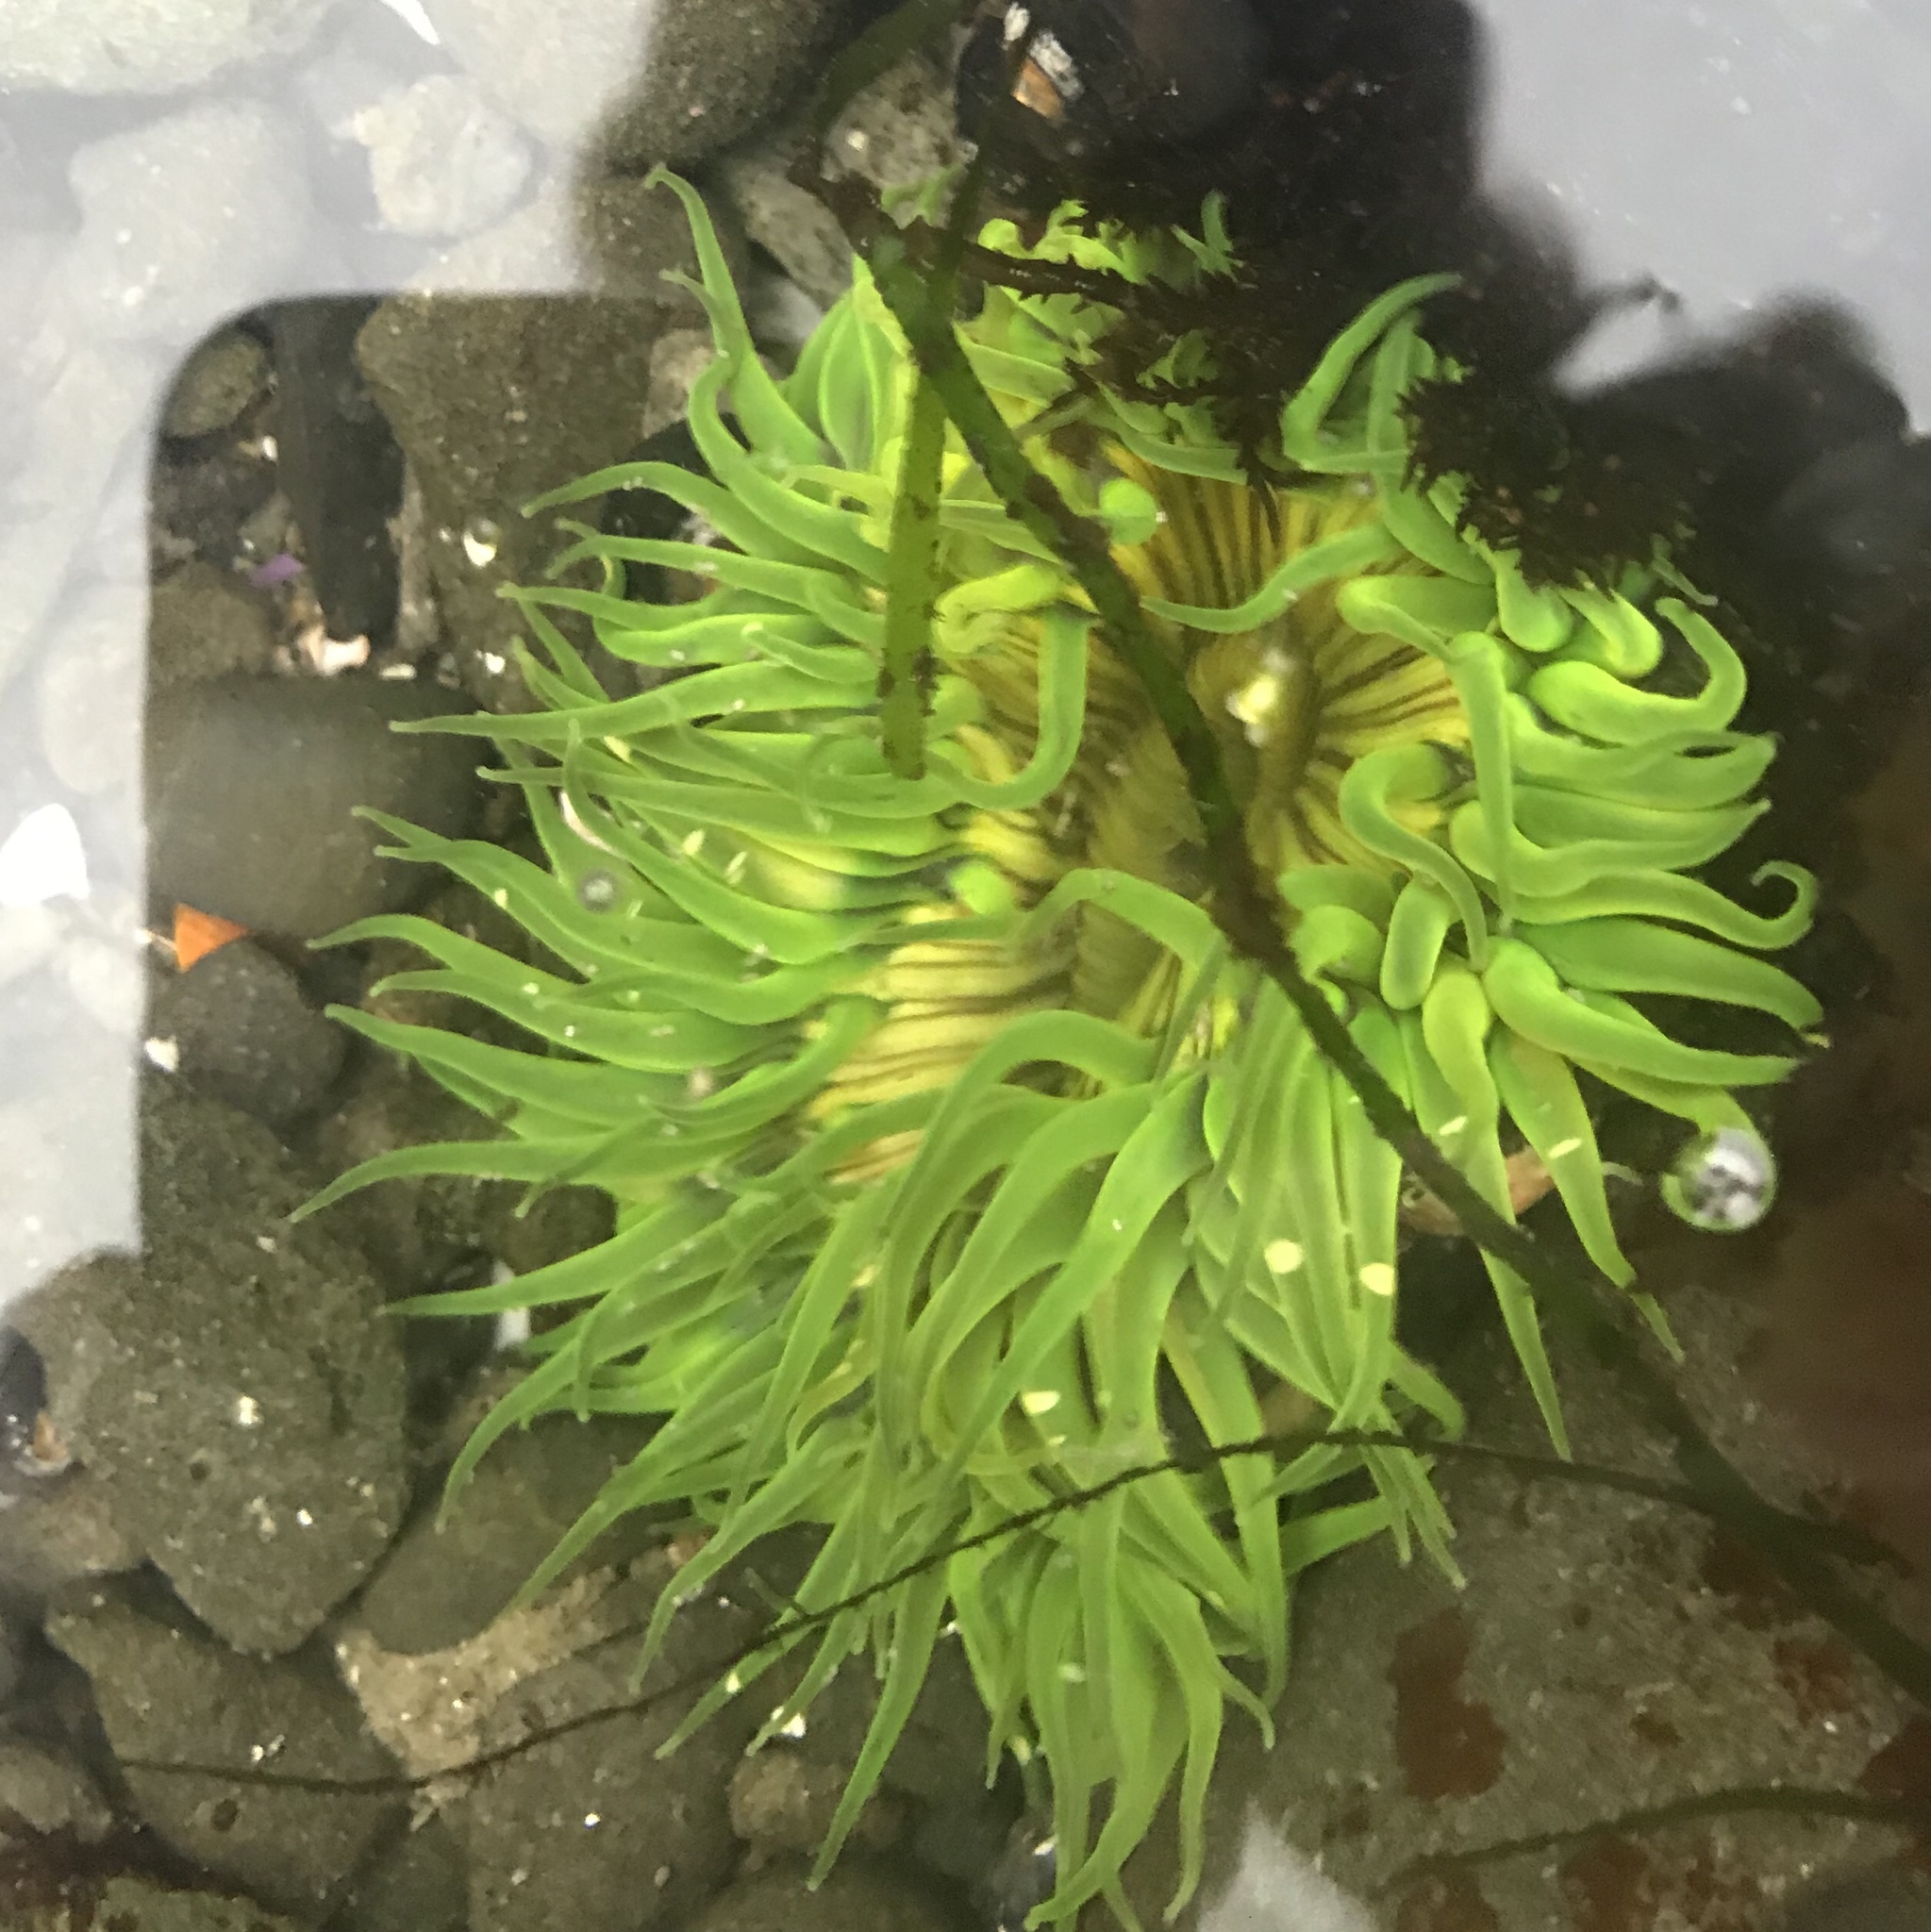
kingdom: Animalia
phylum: Cnidaria
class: Anthozoa
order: Actiniaria
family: Actiniidae
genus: Anthopleura
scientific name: Anthopleura sola
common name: Sun anemone
